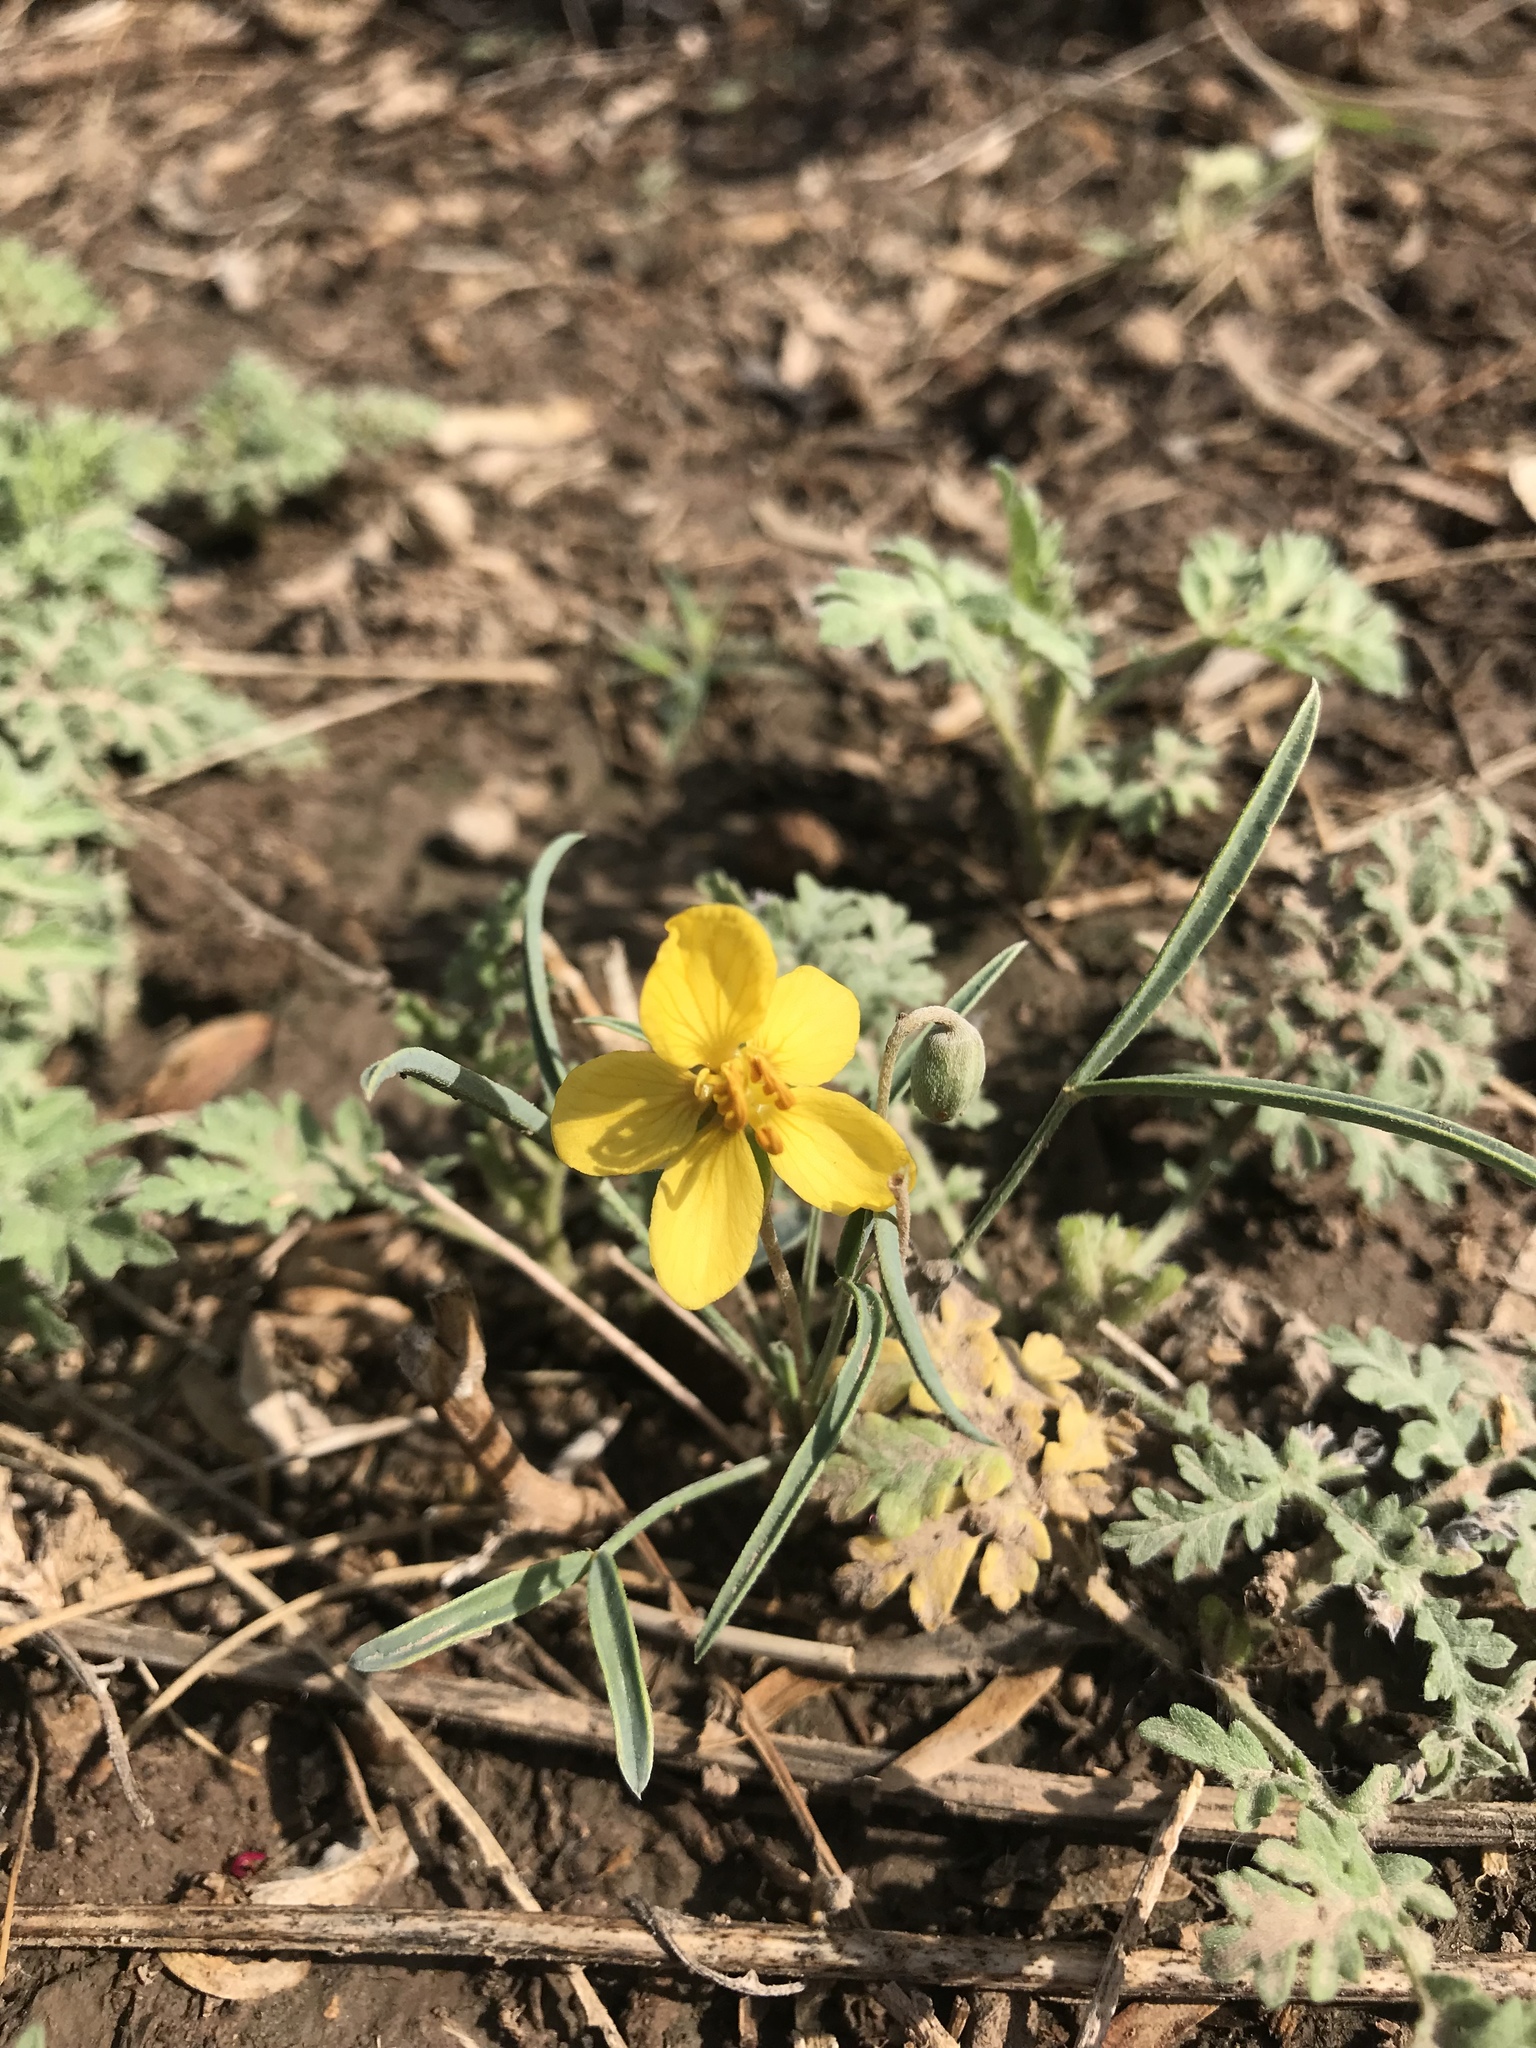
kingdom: Plantae
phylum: Tracheophyta
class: Magnoliopsida
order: Fabales
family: Fabaceae
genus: Senna
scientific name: Senna pumilio
